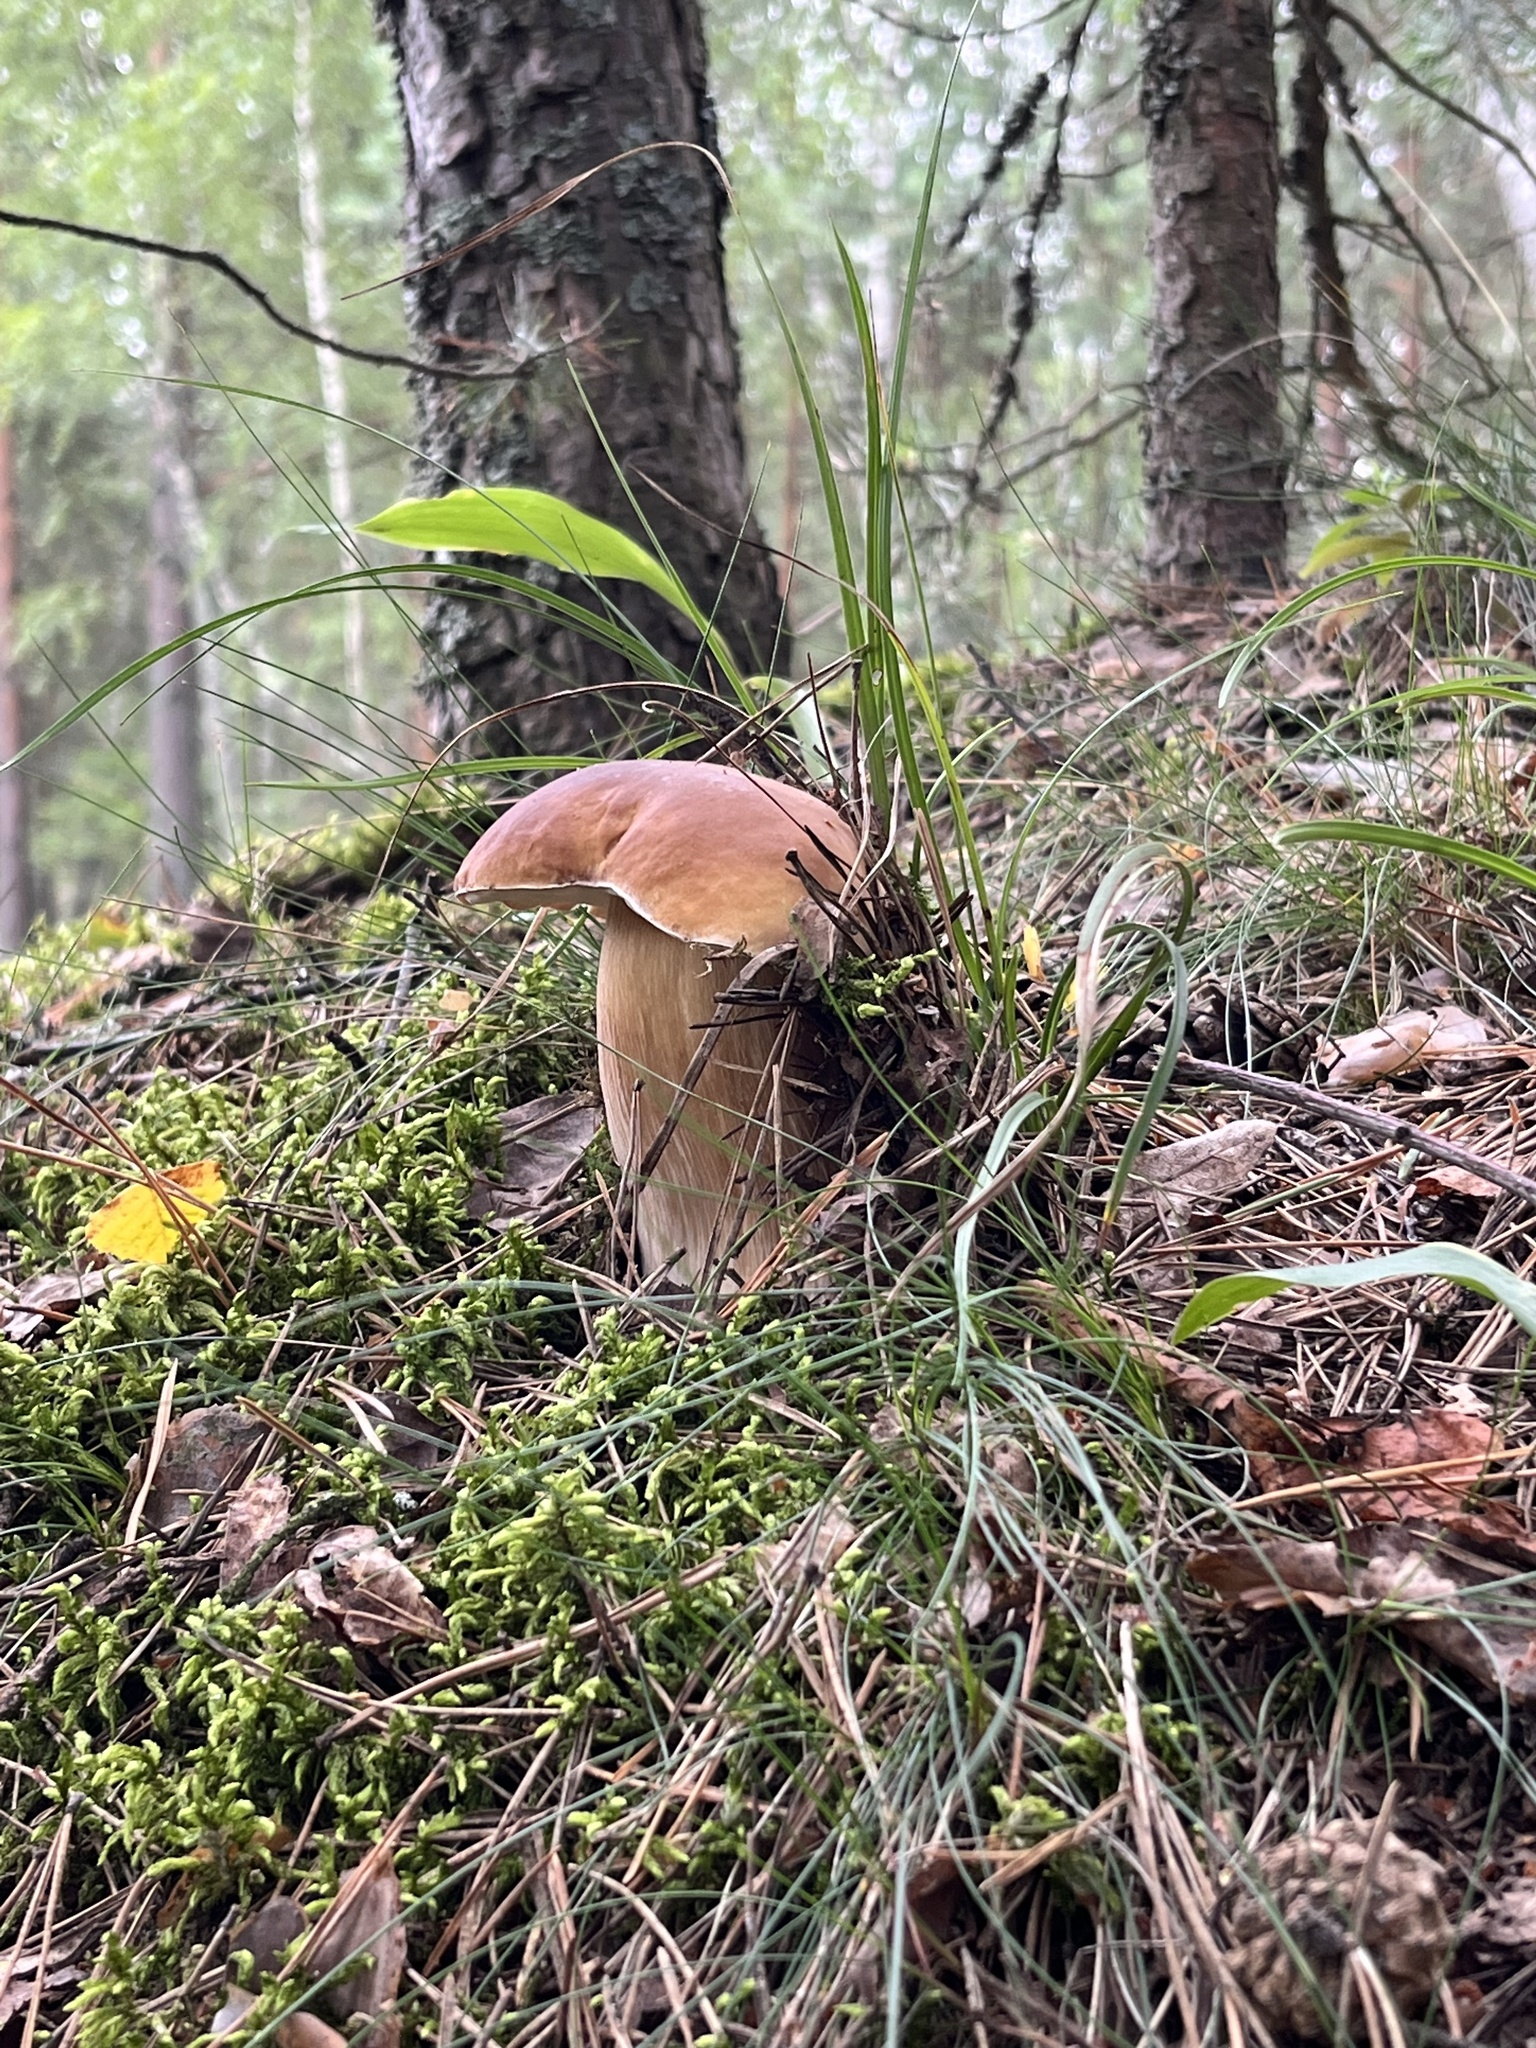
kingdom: Fungi
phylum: Basidiomycota
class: Agaricomycetes
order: Boletales
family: Boletaceae
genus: Boletus
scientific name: Boletus edulis
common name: Cep
